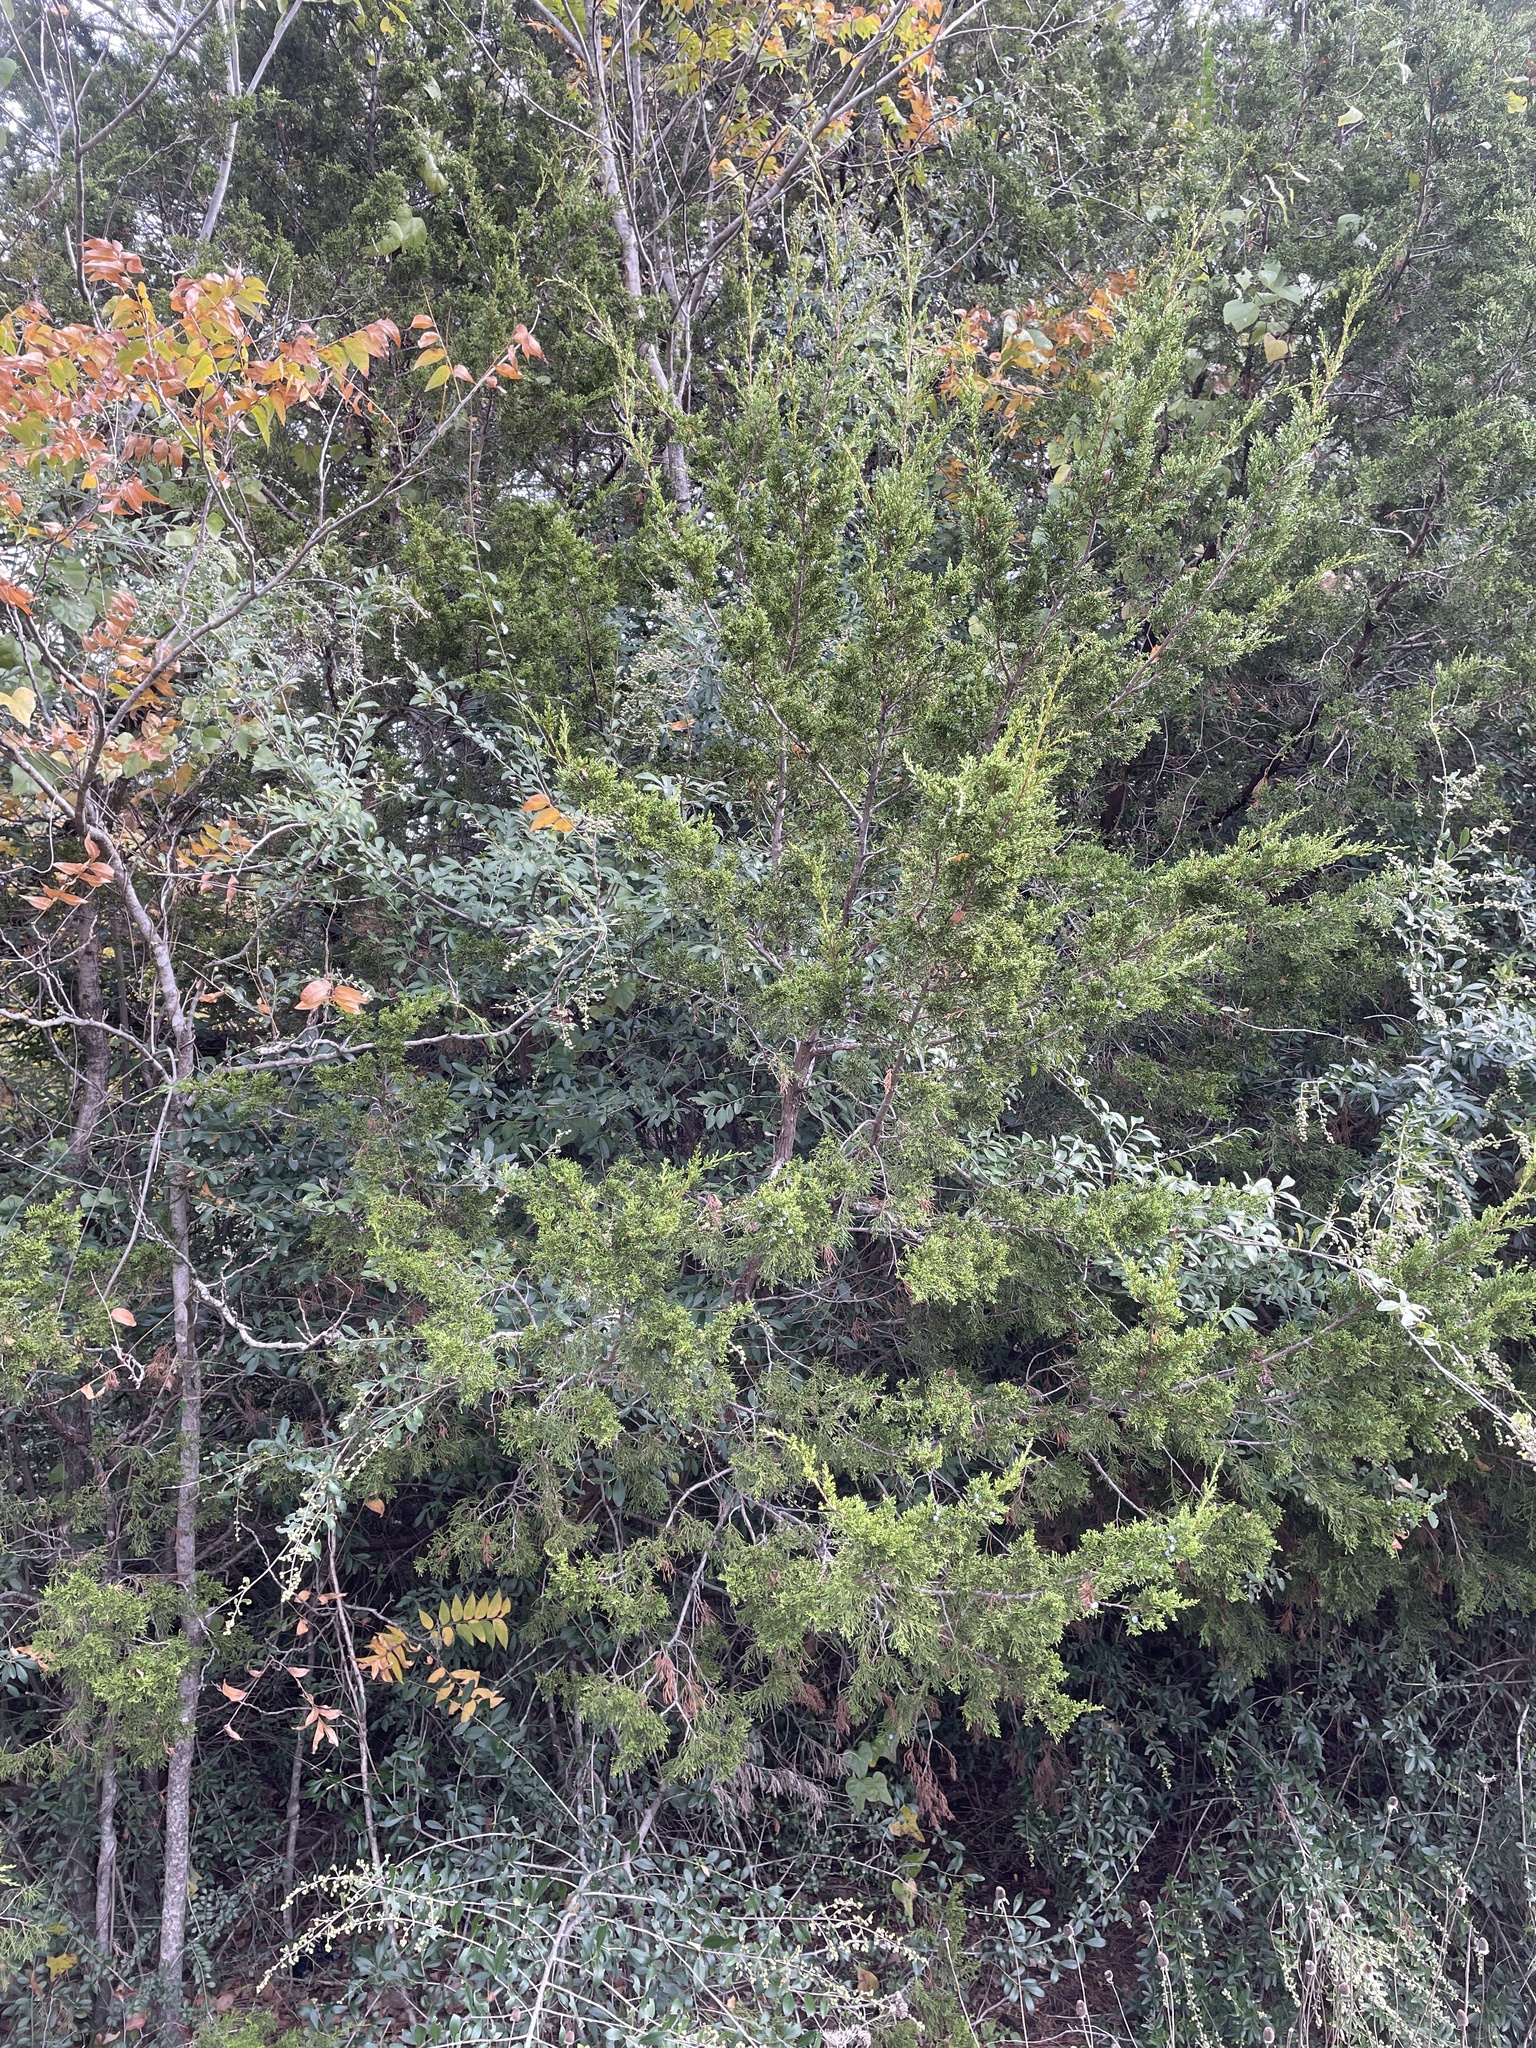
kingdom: Plantae
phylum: Tracheophyta
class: Pinopsida
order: Pinales
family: Cupressaceae
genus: Juniperus
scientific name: Juniperus virginiana
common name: Red juniper
